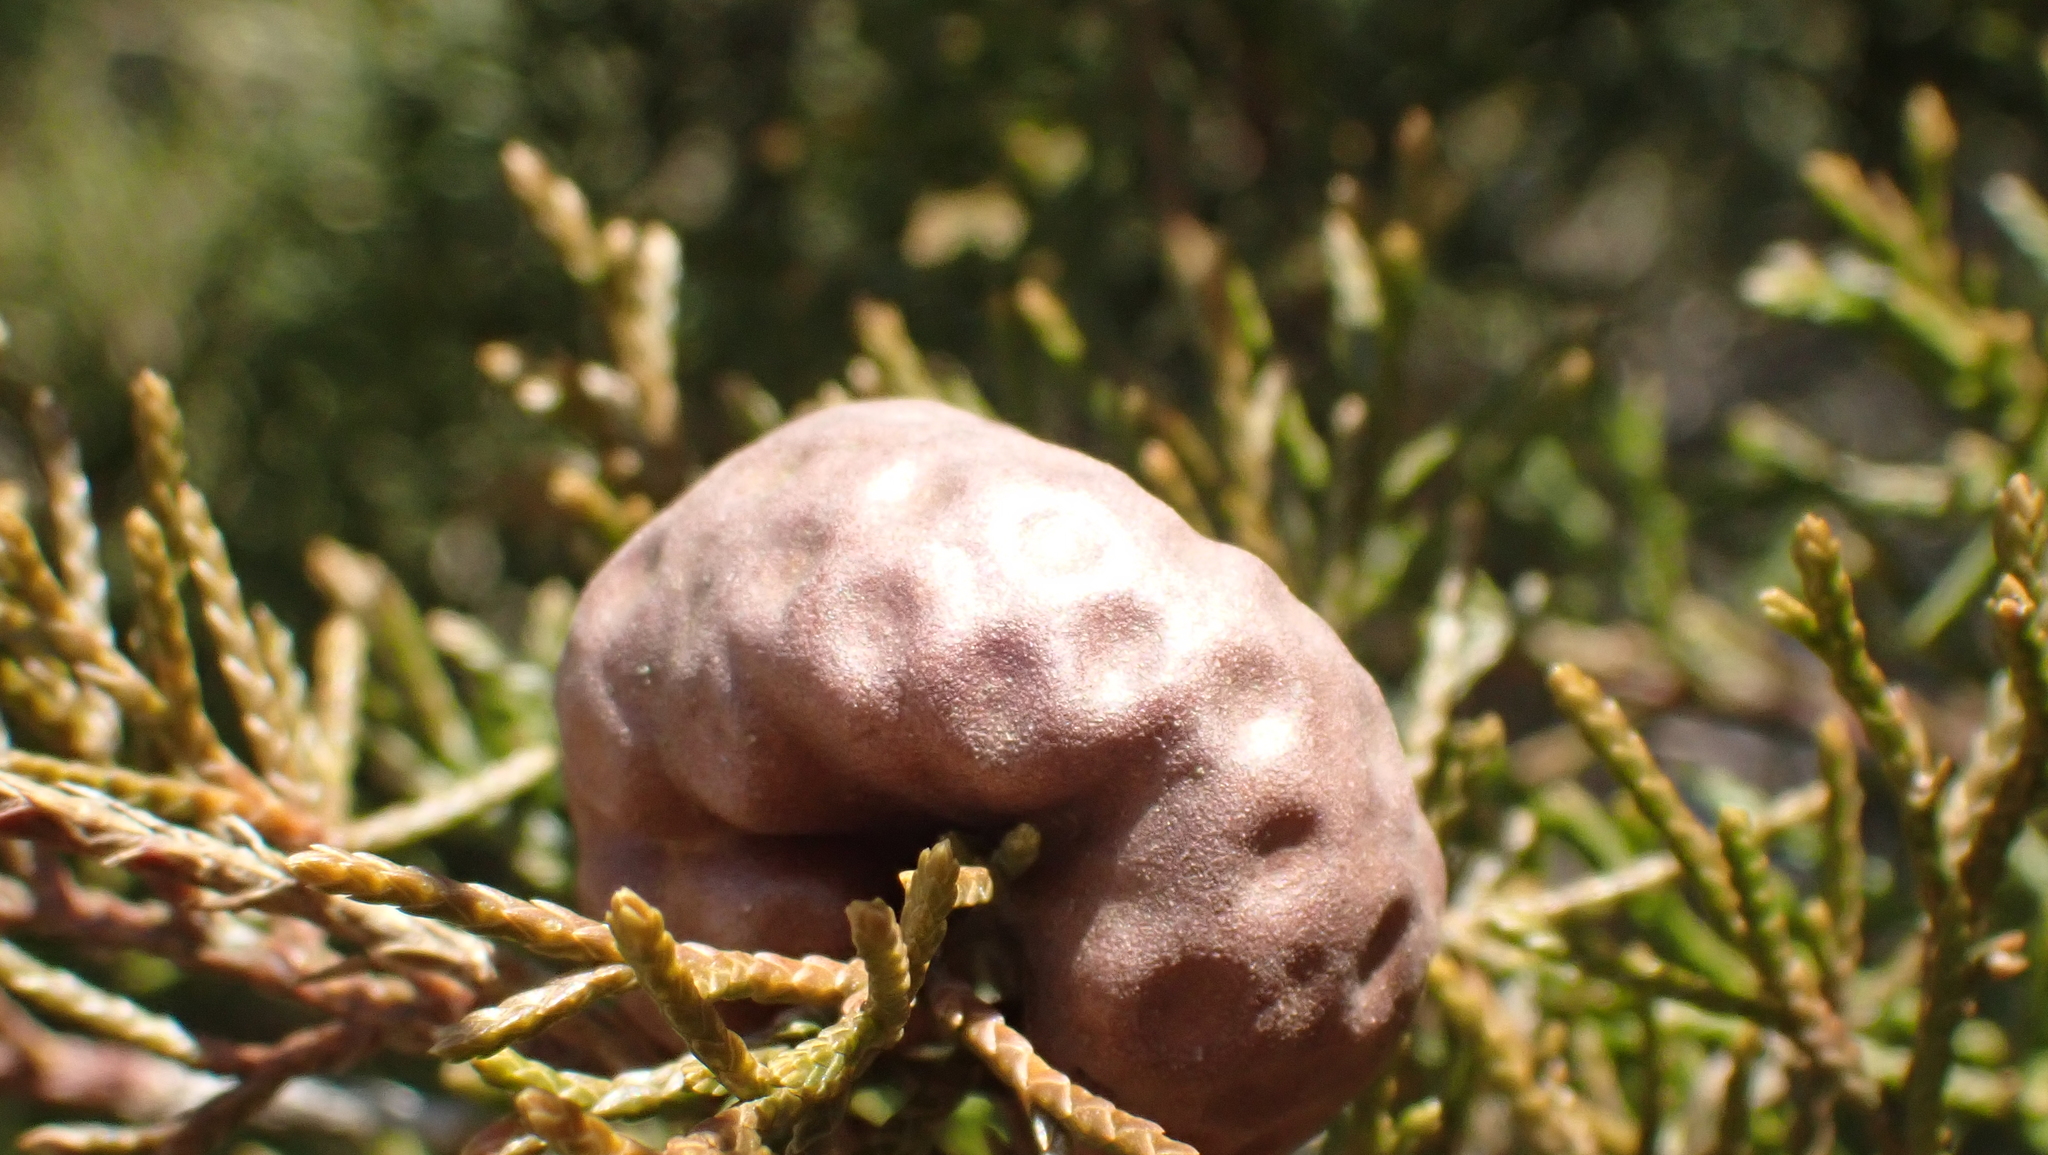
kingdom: Fungi
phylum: Basidiomycota
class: Pucciniomycetes
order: Pucciniales
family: Gymnosporangiaceae
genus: Gymnosporangium
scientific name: Gymnosporangium juniperi-virginianae
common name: Juniper-apple rust
